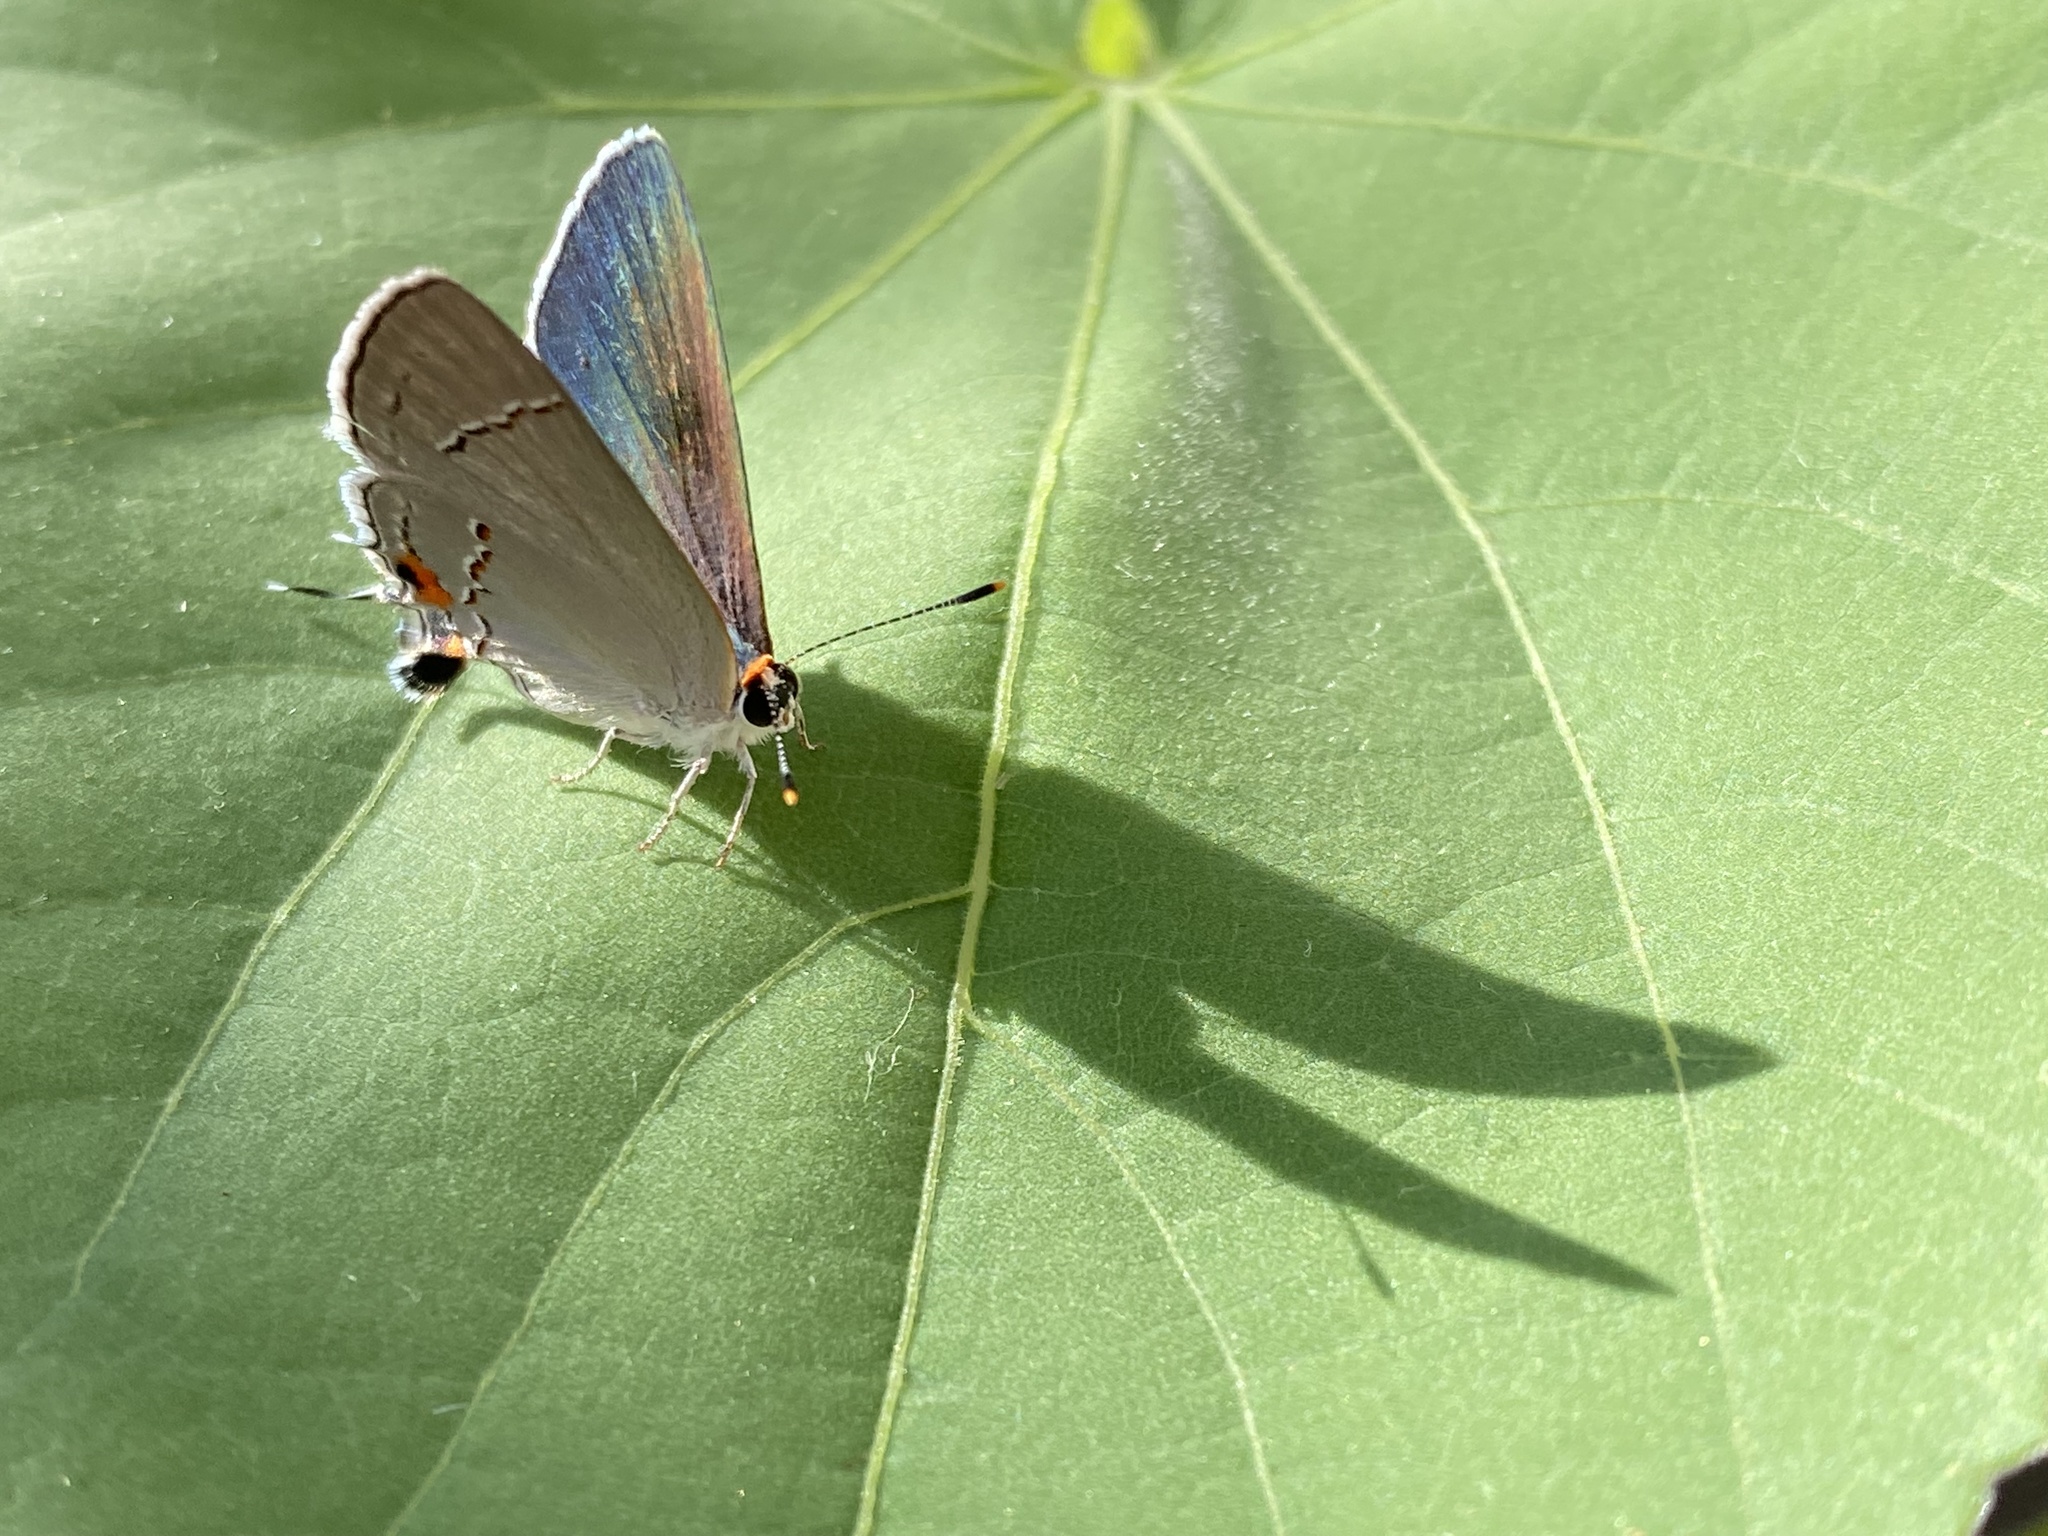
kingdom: Animalia
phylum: Arthropoda
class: Insecta
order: Lepidoptera
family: Lycaenidae
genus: Strymon
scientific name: Strymon melinus
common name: Gray hairstreak
